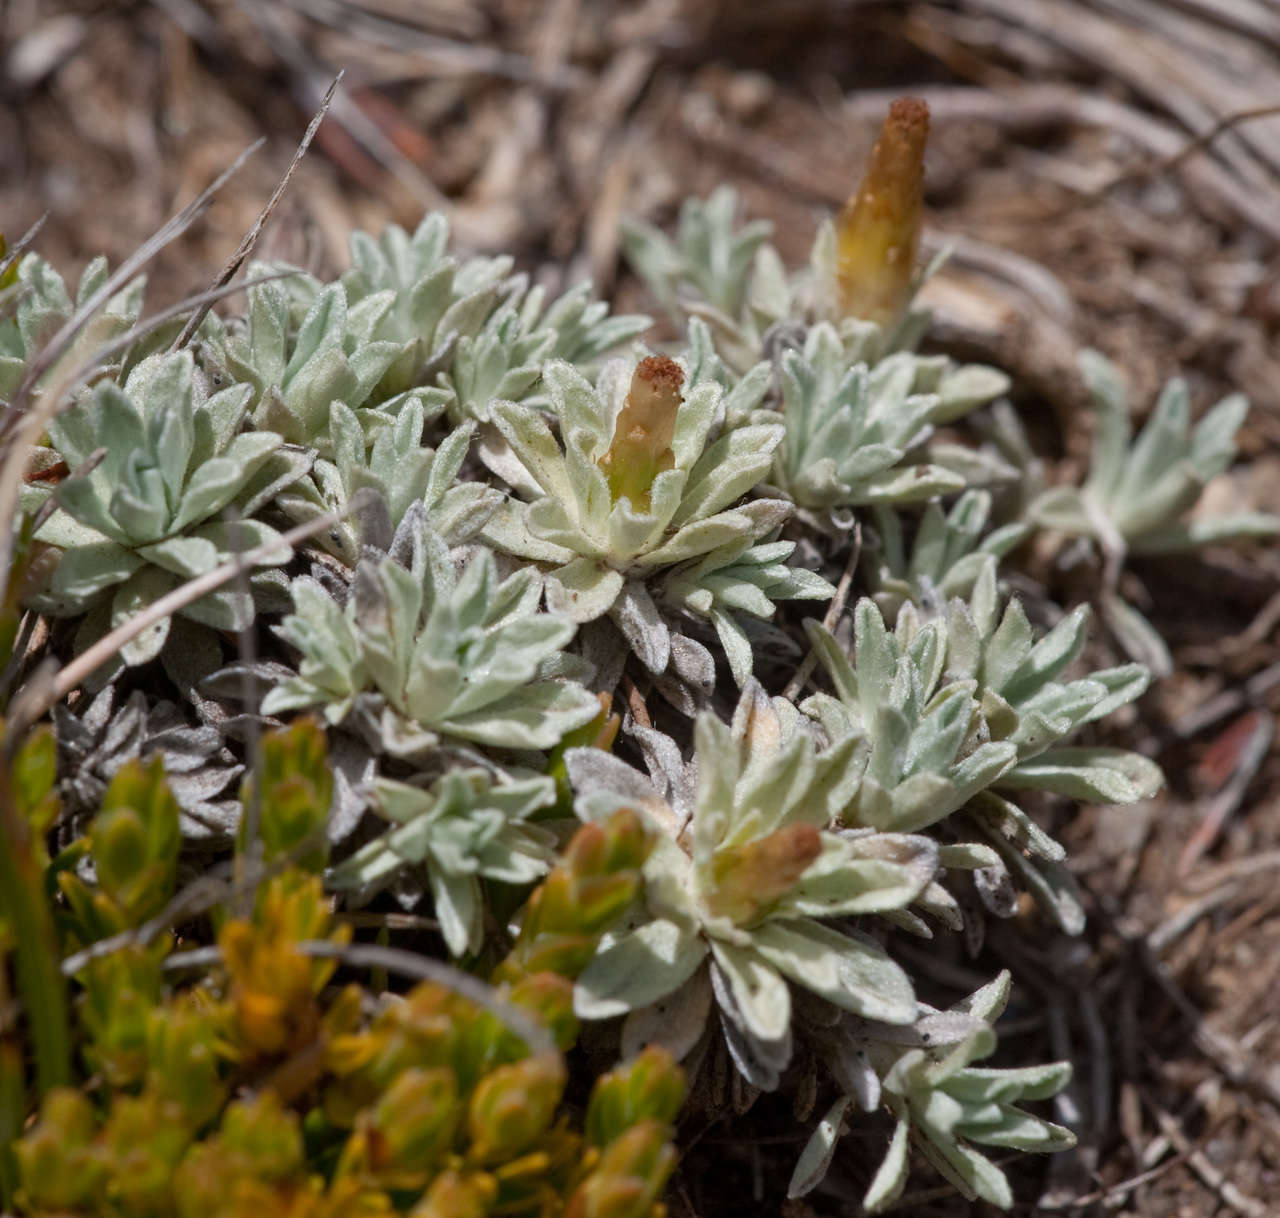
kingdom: Plantae
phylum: Tracheophyta
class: Magnoliopsida
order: Asterales
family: Asteraceae
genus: Argyrotegium
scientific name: Argyrotegium nitidulum
